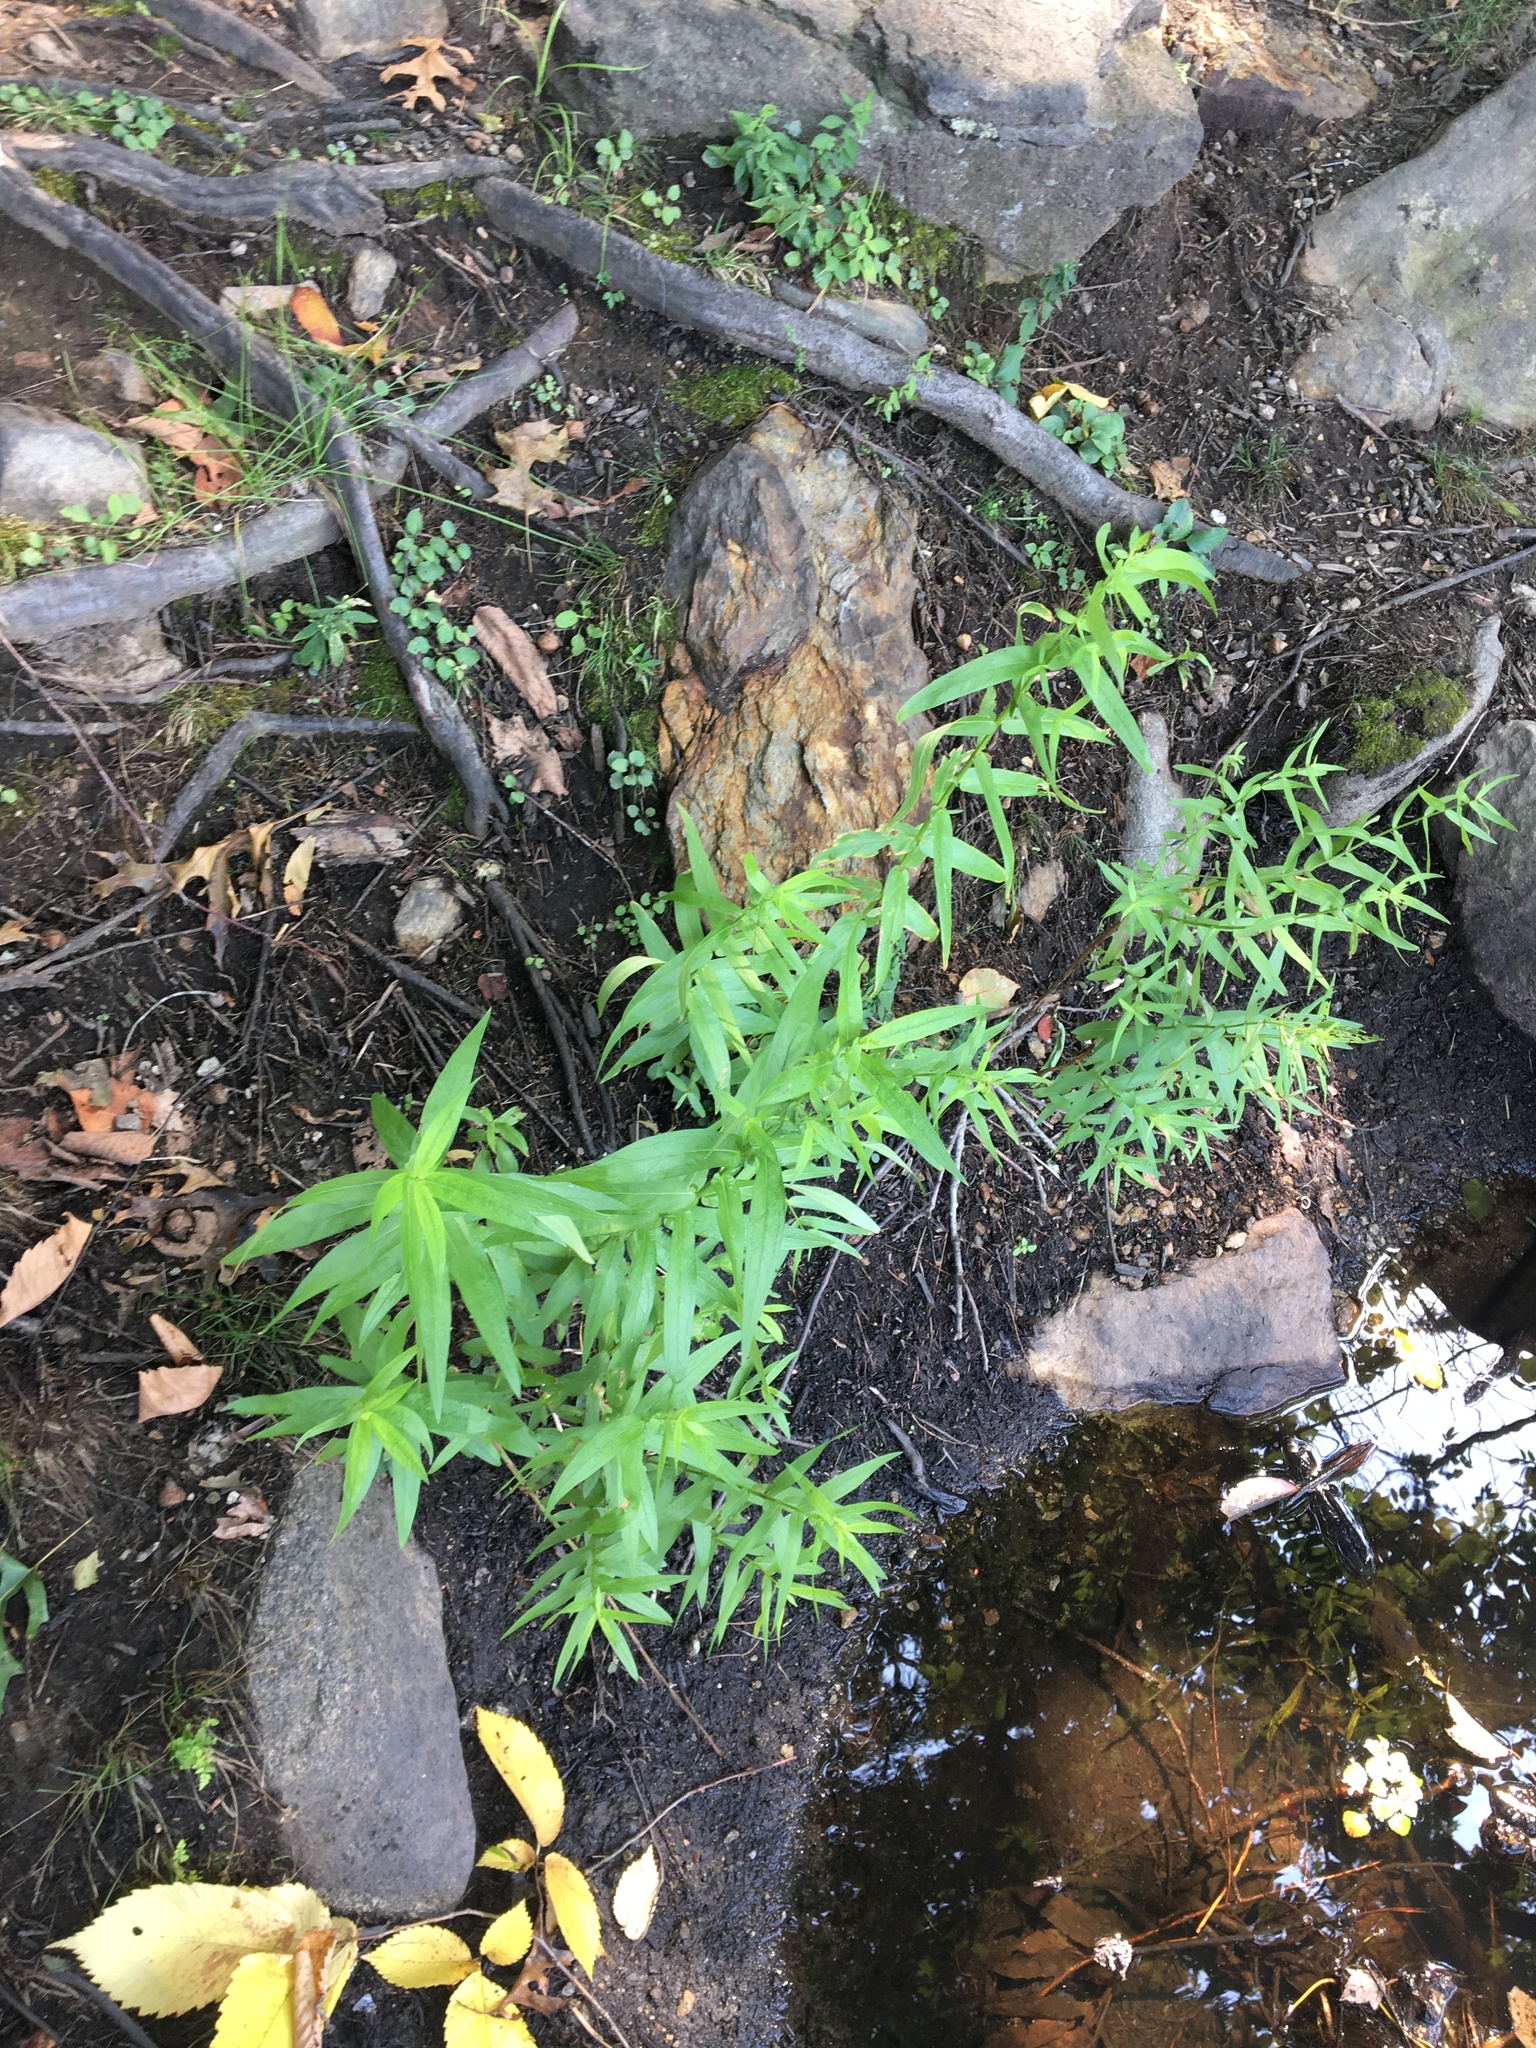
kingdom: Plantae
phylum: Tracheophyta
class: Magnoliopsida
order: Myrtales
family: Lythraceae
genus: Lythrum
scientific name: Lythrum salicaria
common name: Purple loosestrife
